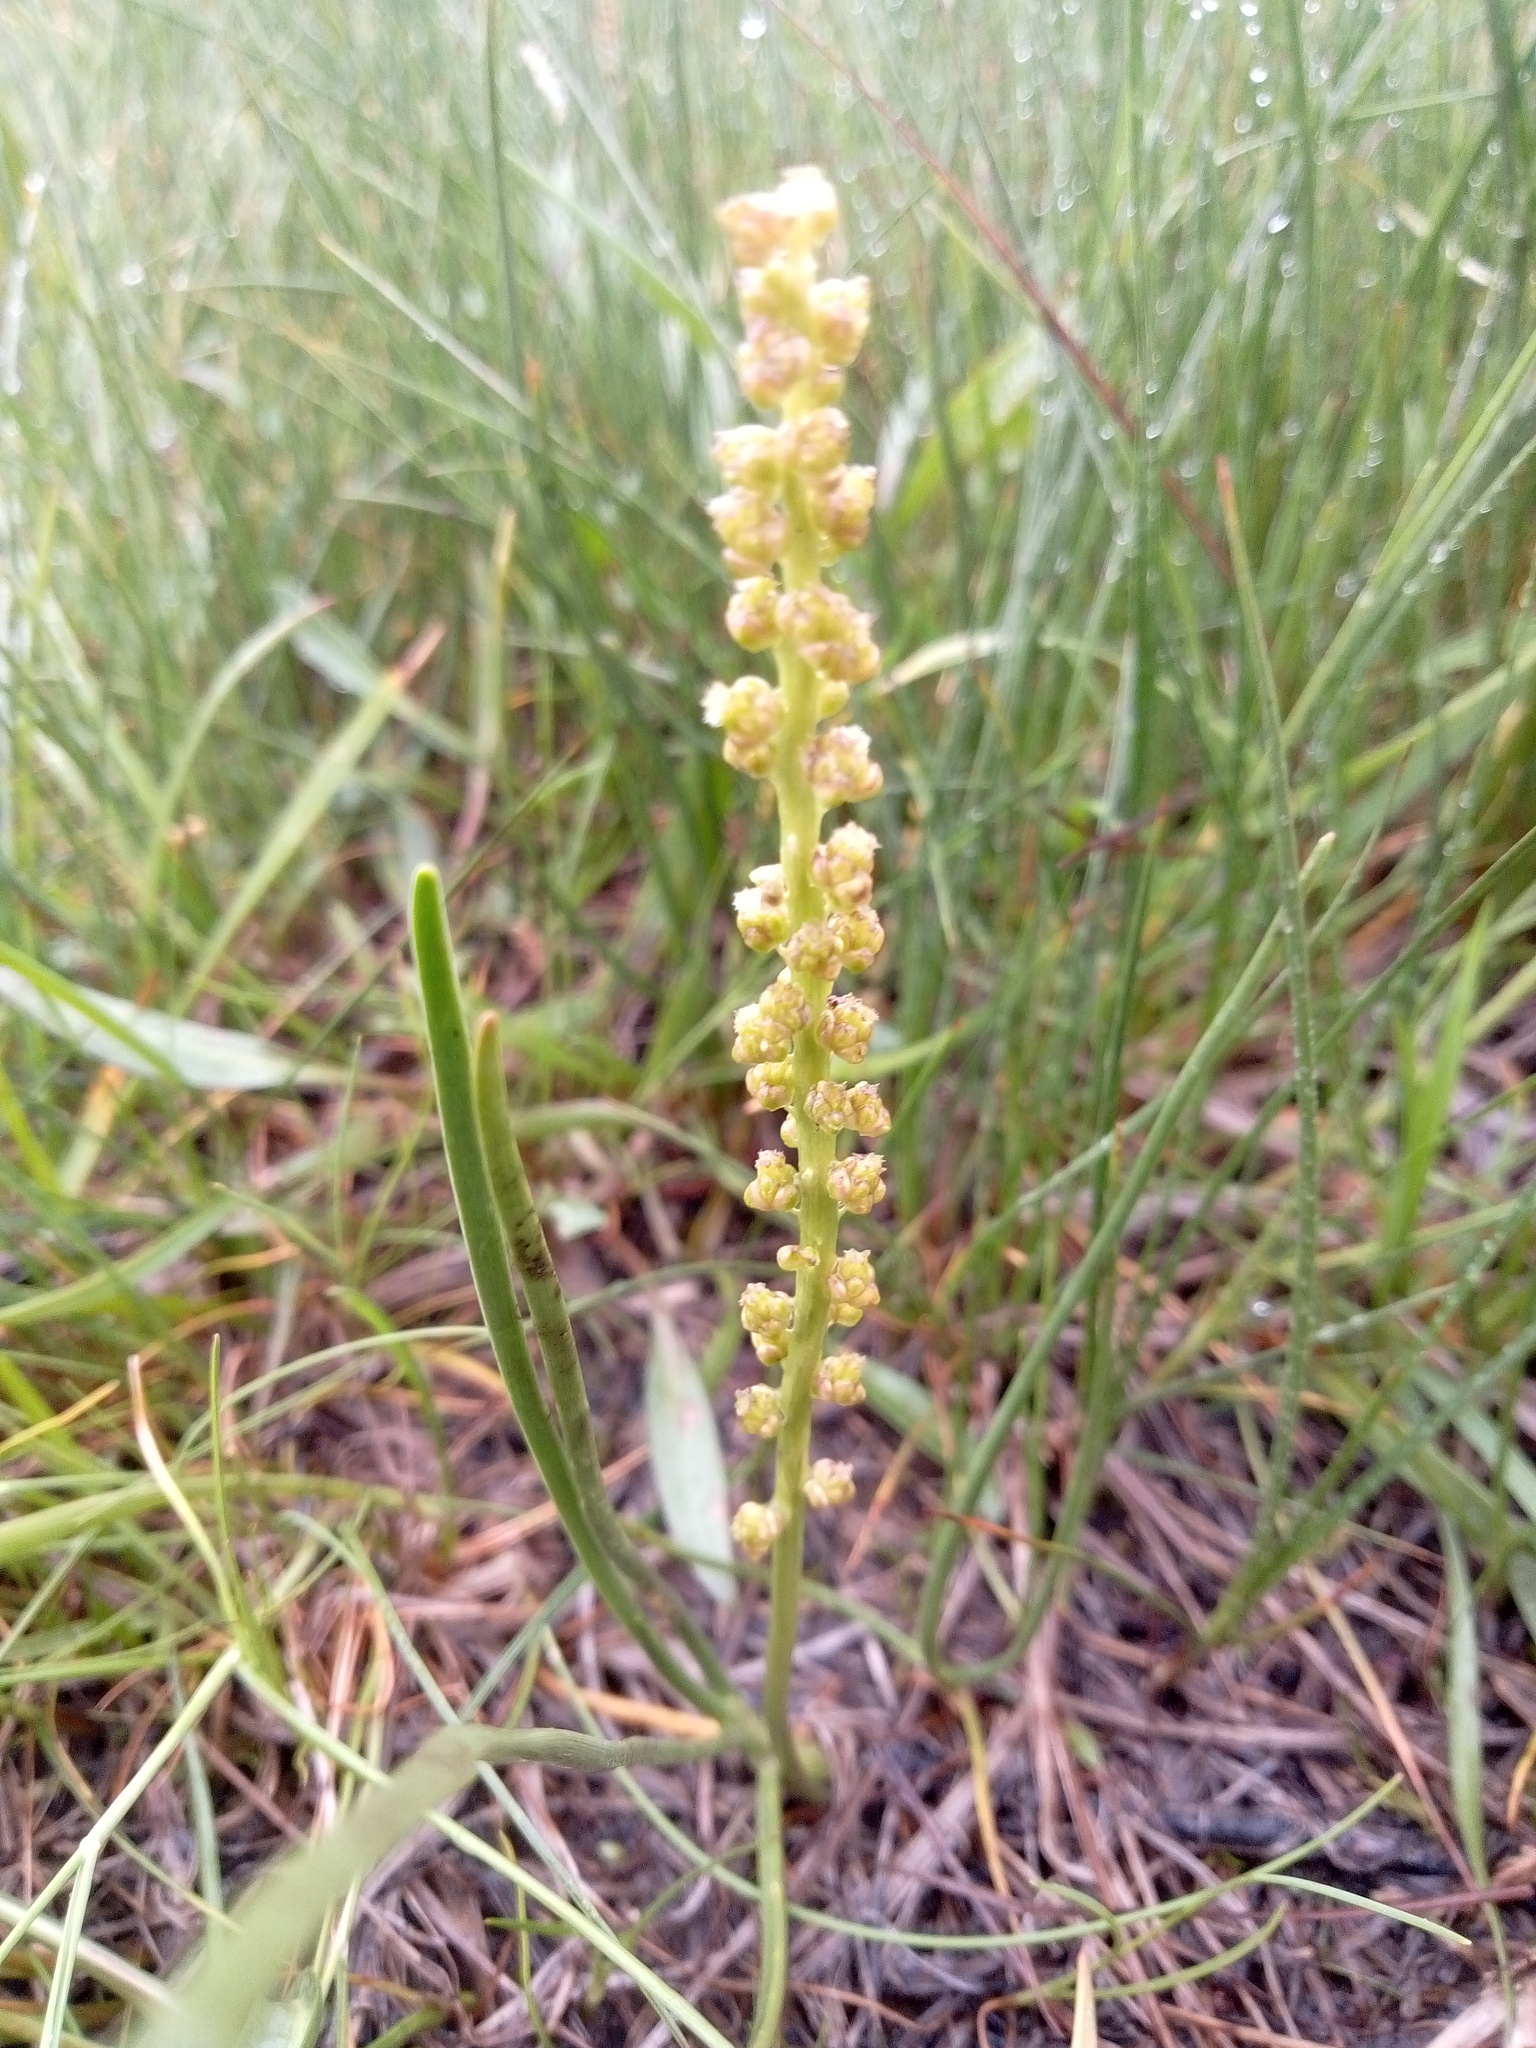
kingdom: Plantae
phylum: Tracheophyta
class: Liliopsida
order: Alismatales
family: Juncaginaceae
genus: Triglochin
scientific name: Triglochin maritima
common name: Sea arrowgrass
